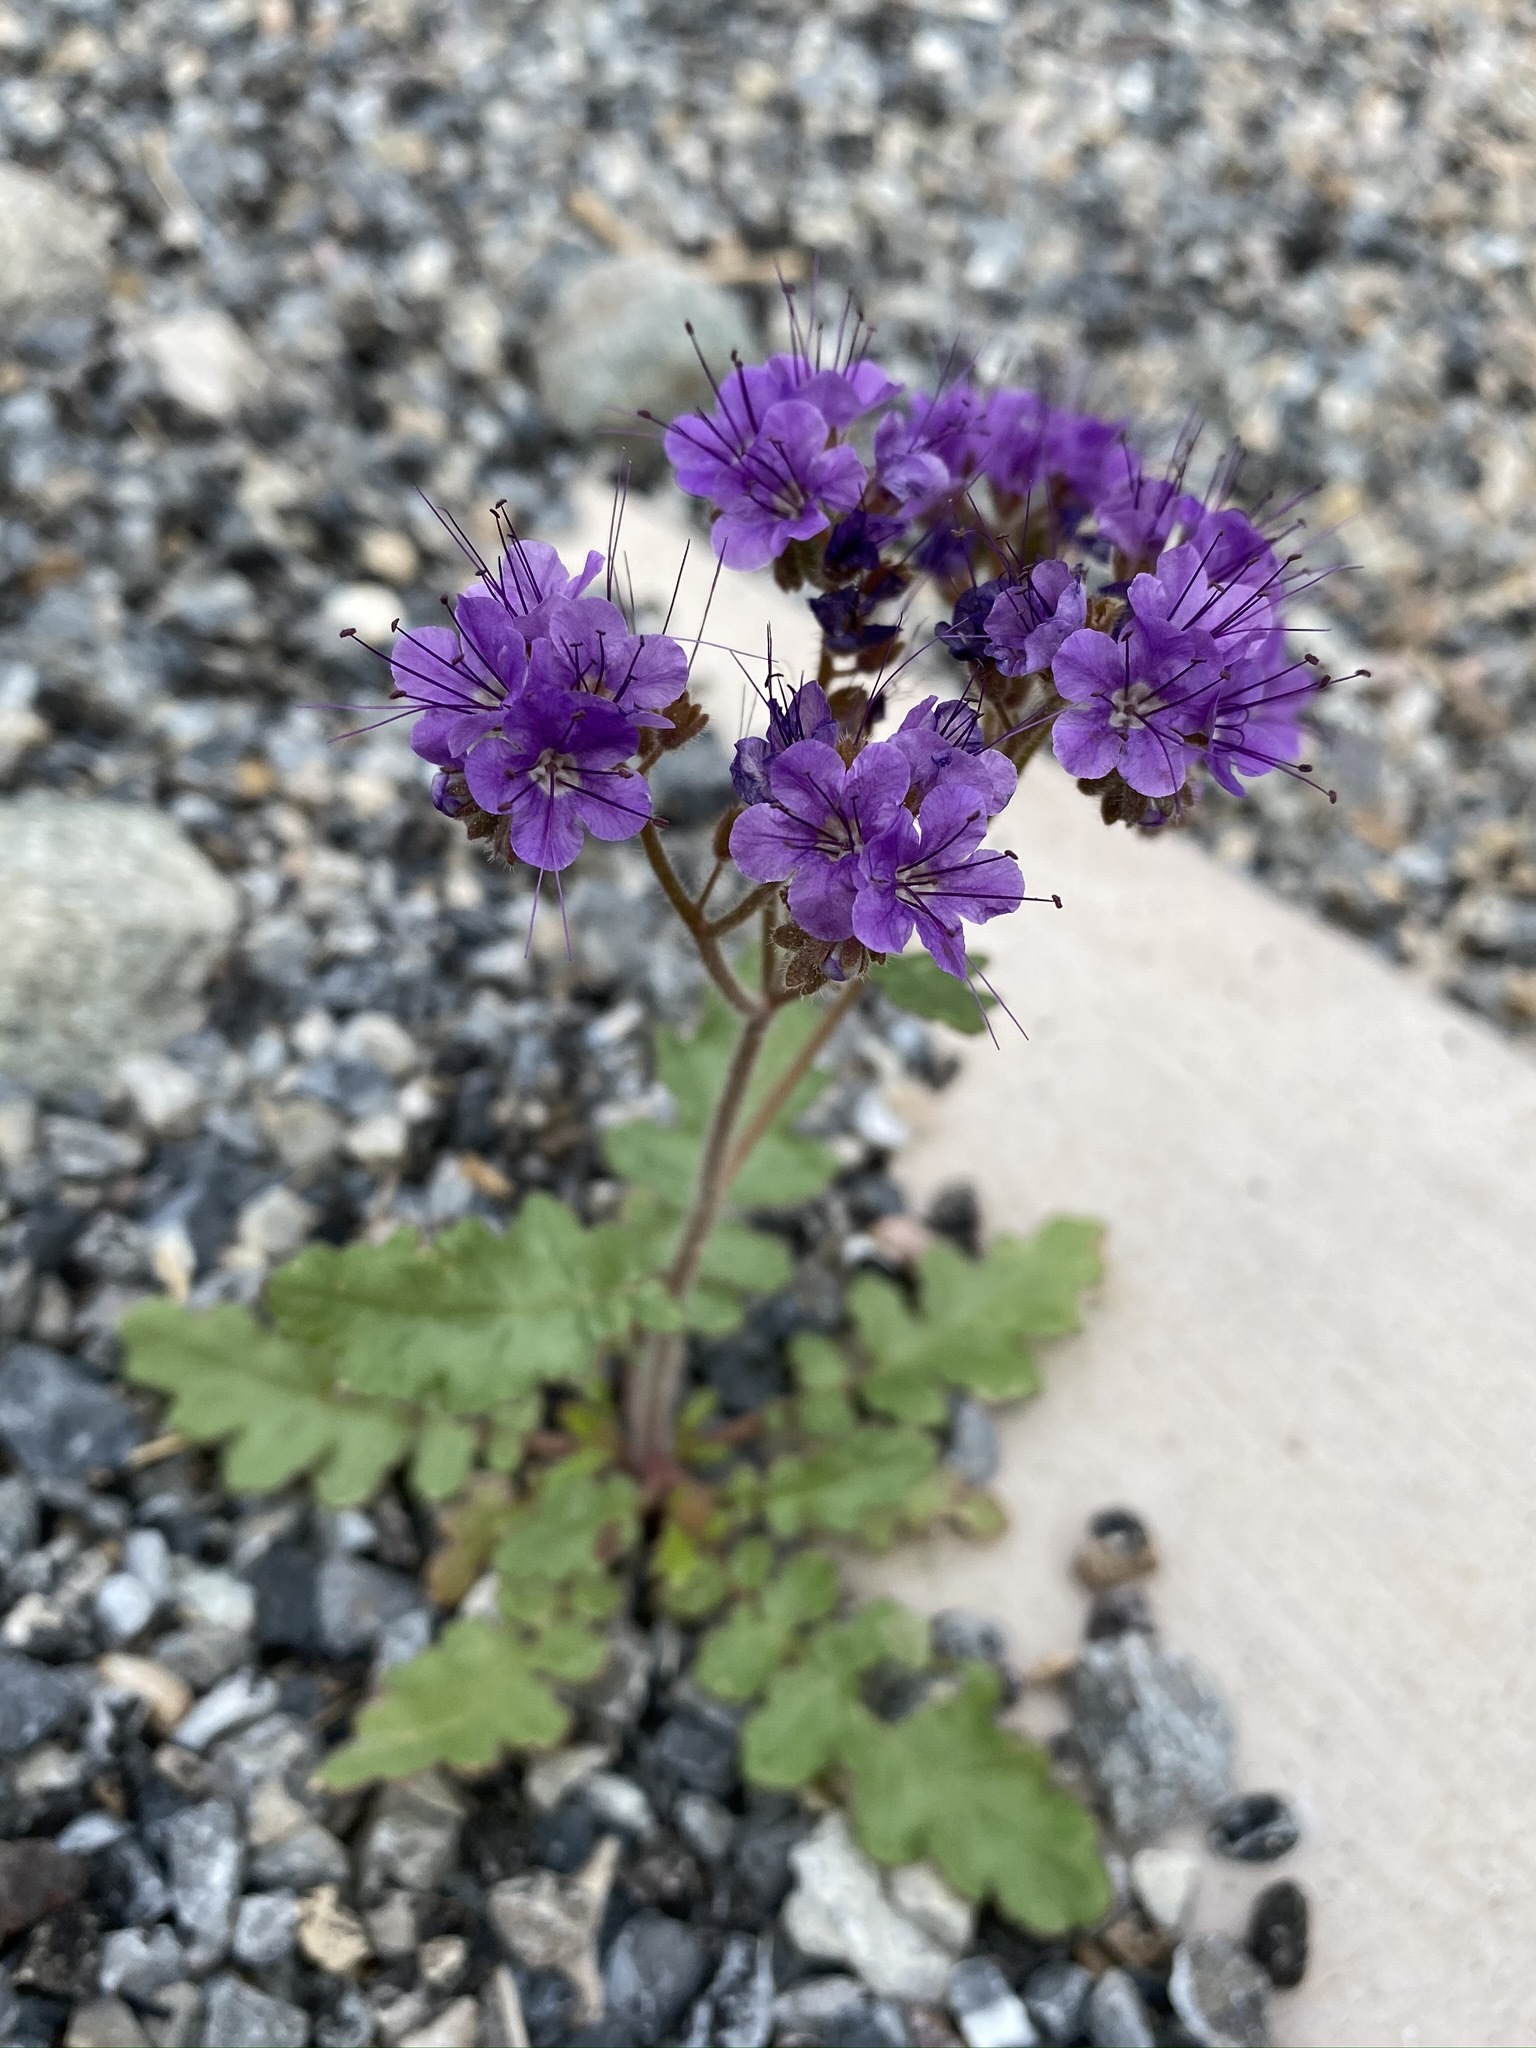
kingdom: Plantae
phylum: Tracheophyta
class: Magnoliopsida
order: Boraginales
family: Hydrophyllaceae
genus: Phacelia
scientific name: Phacelia crenulata
